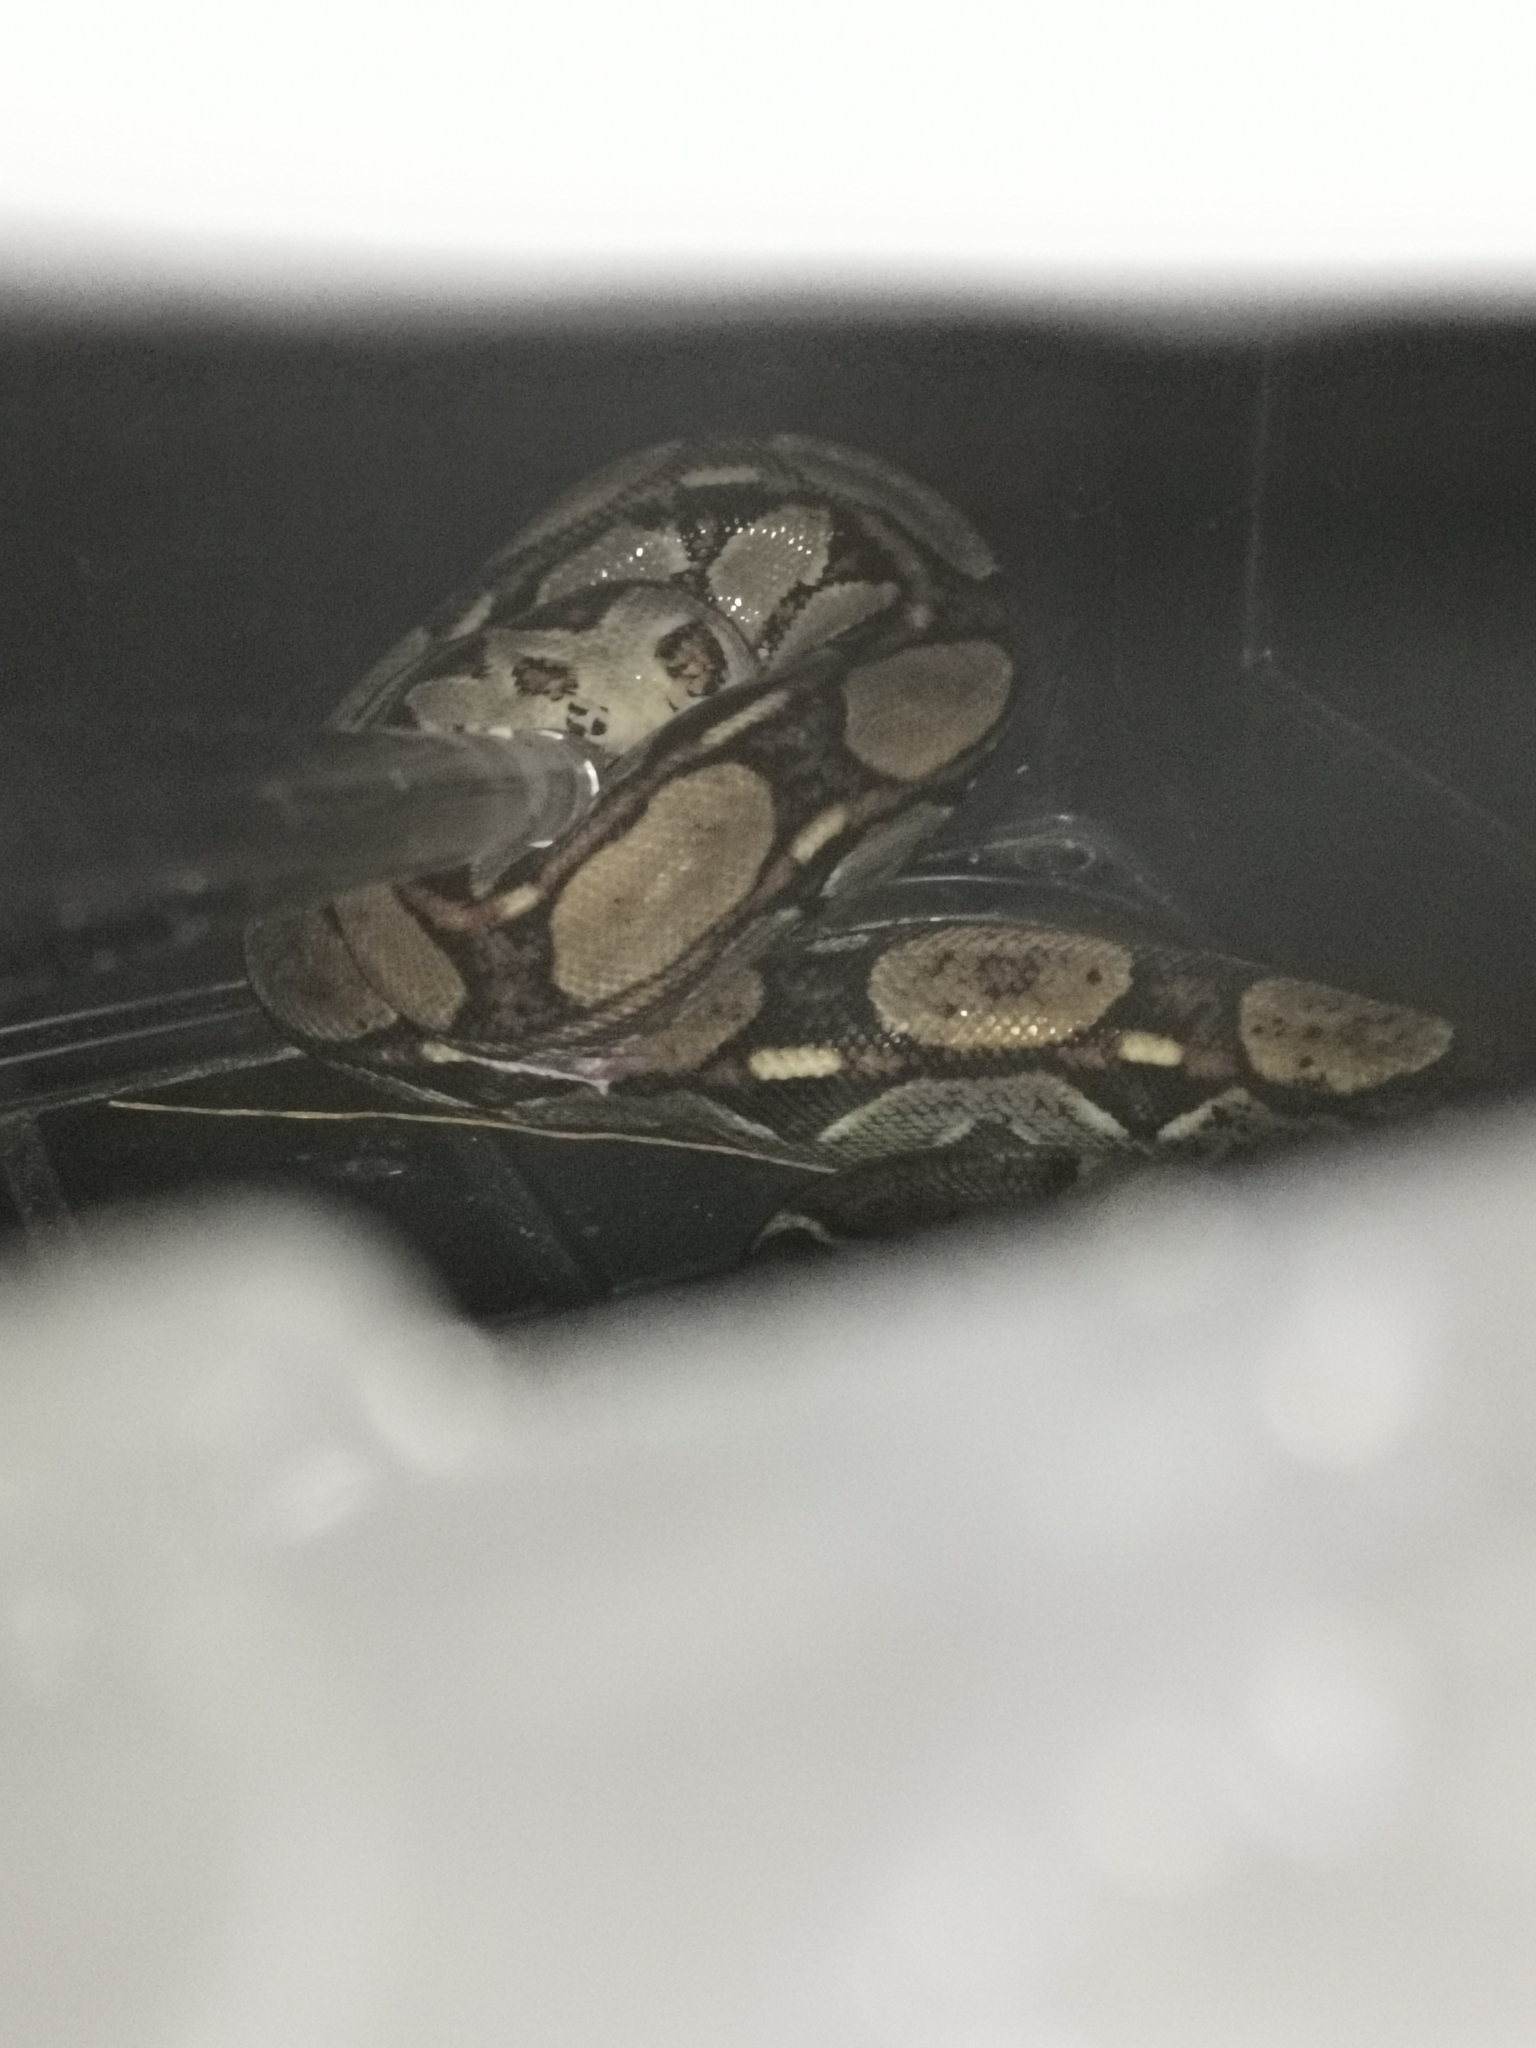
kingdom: Animalia
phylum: Chordata
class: Squamata
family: Boidae
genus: Boa
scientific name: Boa imperator
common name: Central american boa
